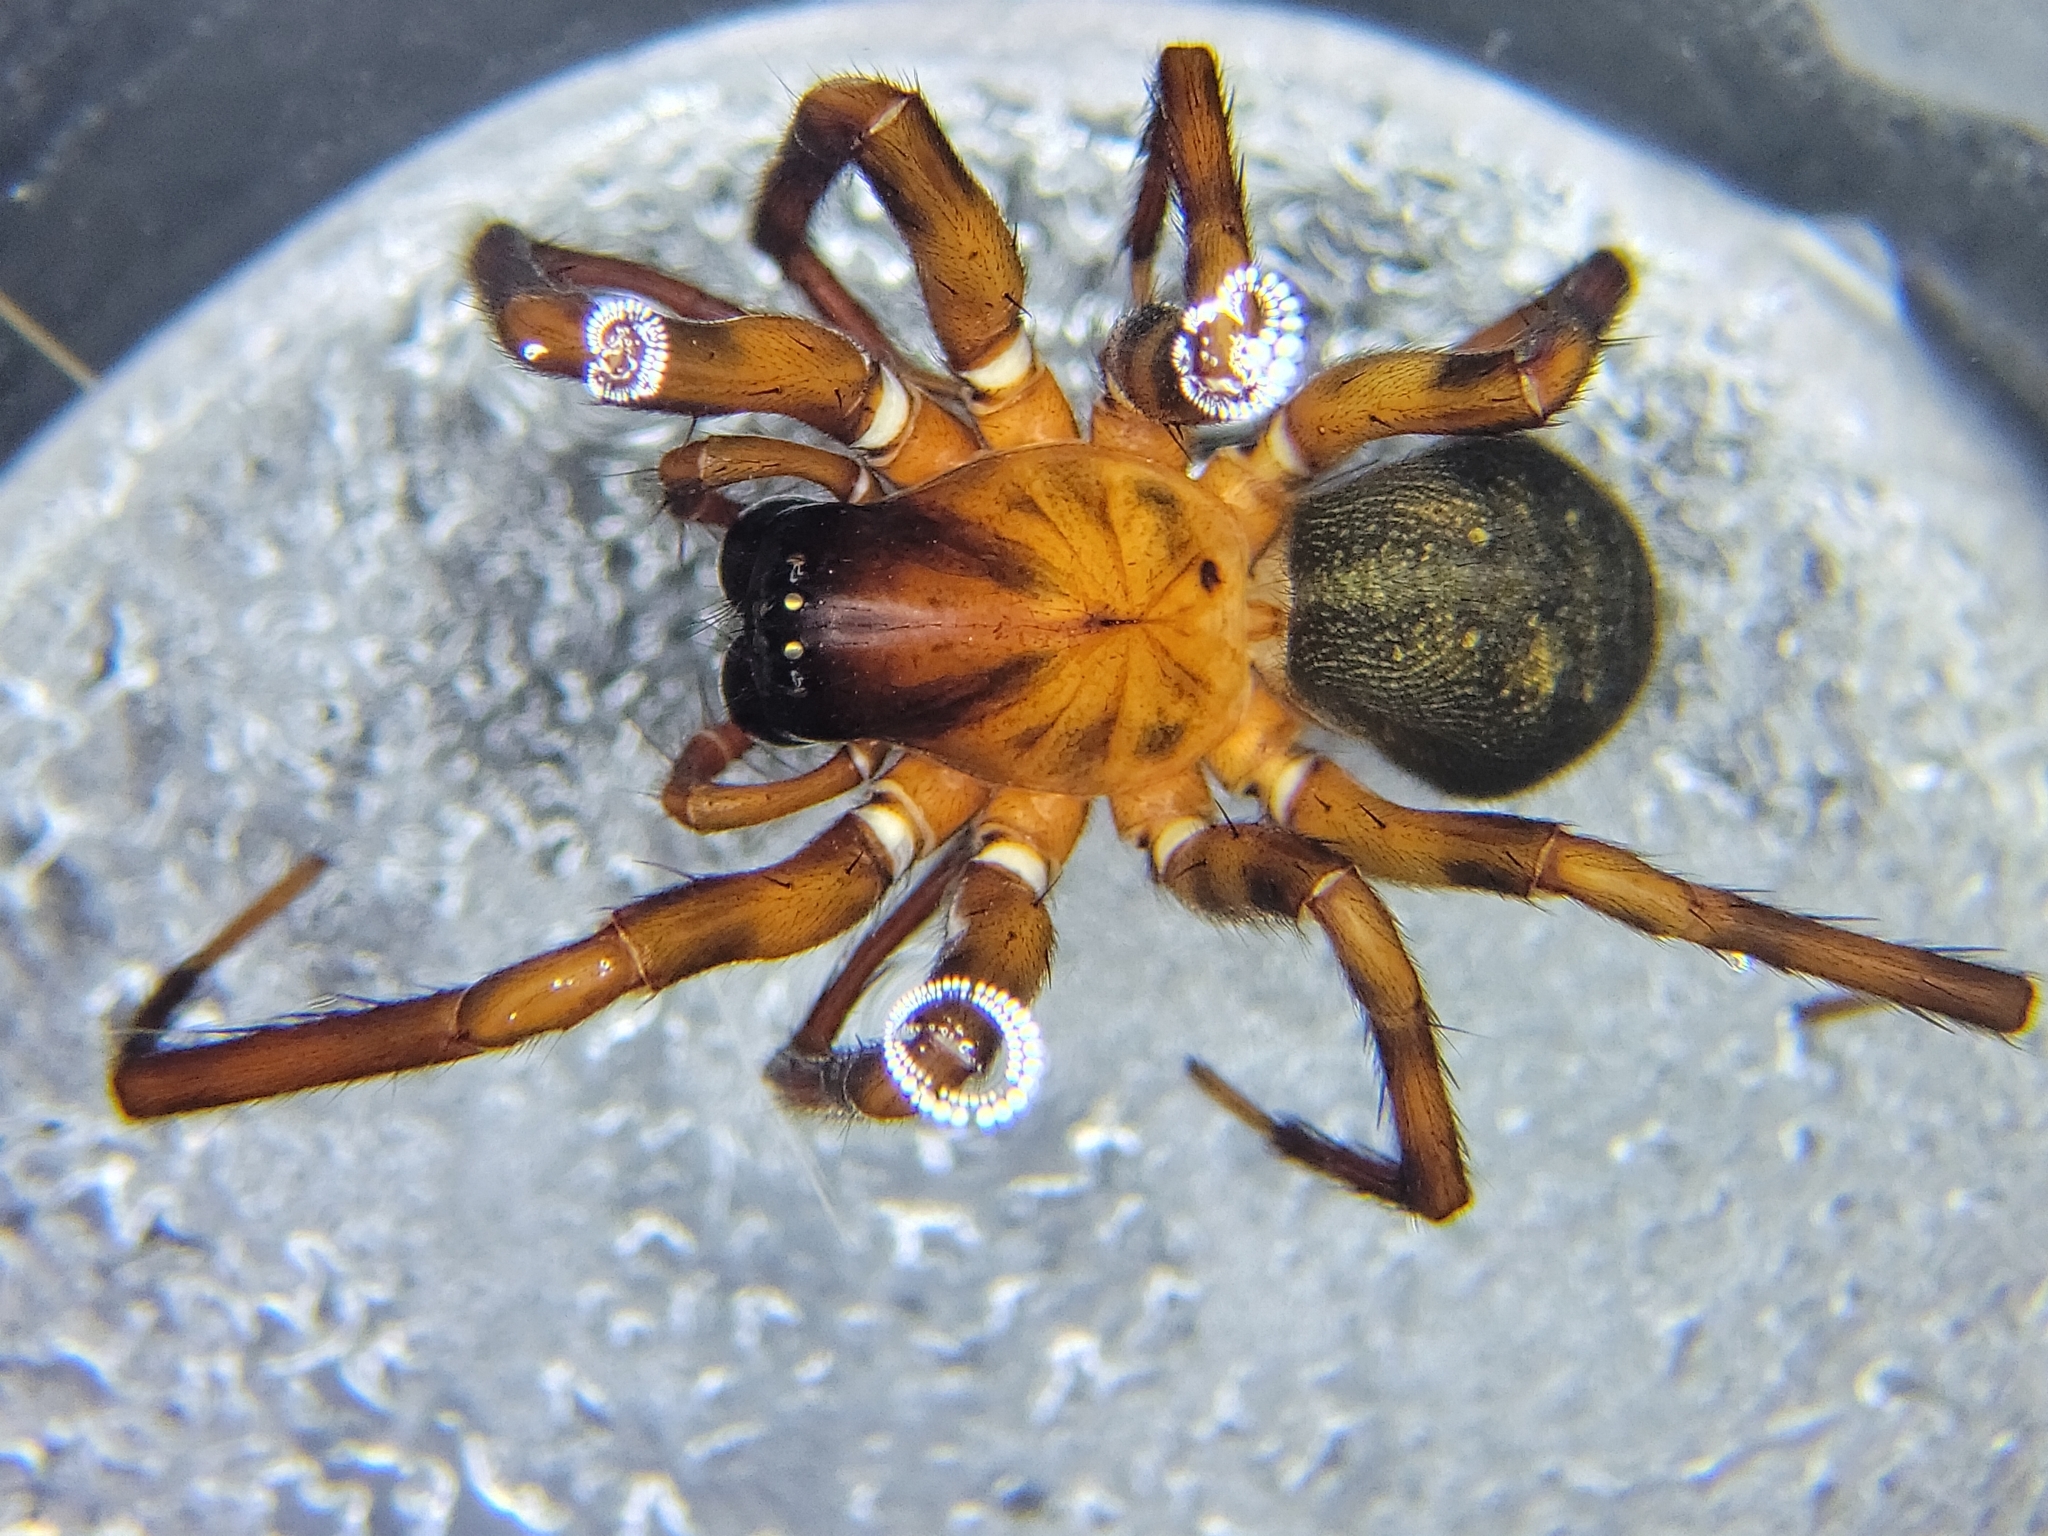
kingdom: Animalia
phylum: Arthropoda
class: Arachnida
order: Araneae
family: Cybaeidae
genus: Cybaeus
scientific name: Cybaeus signifer
